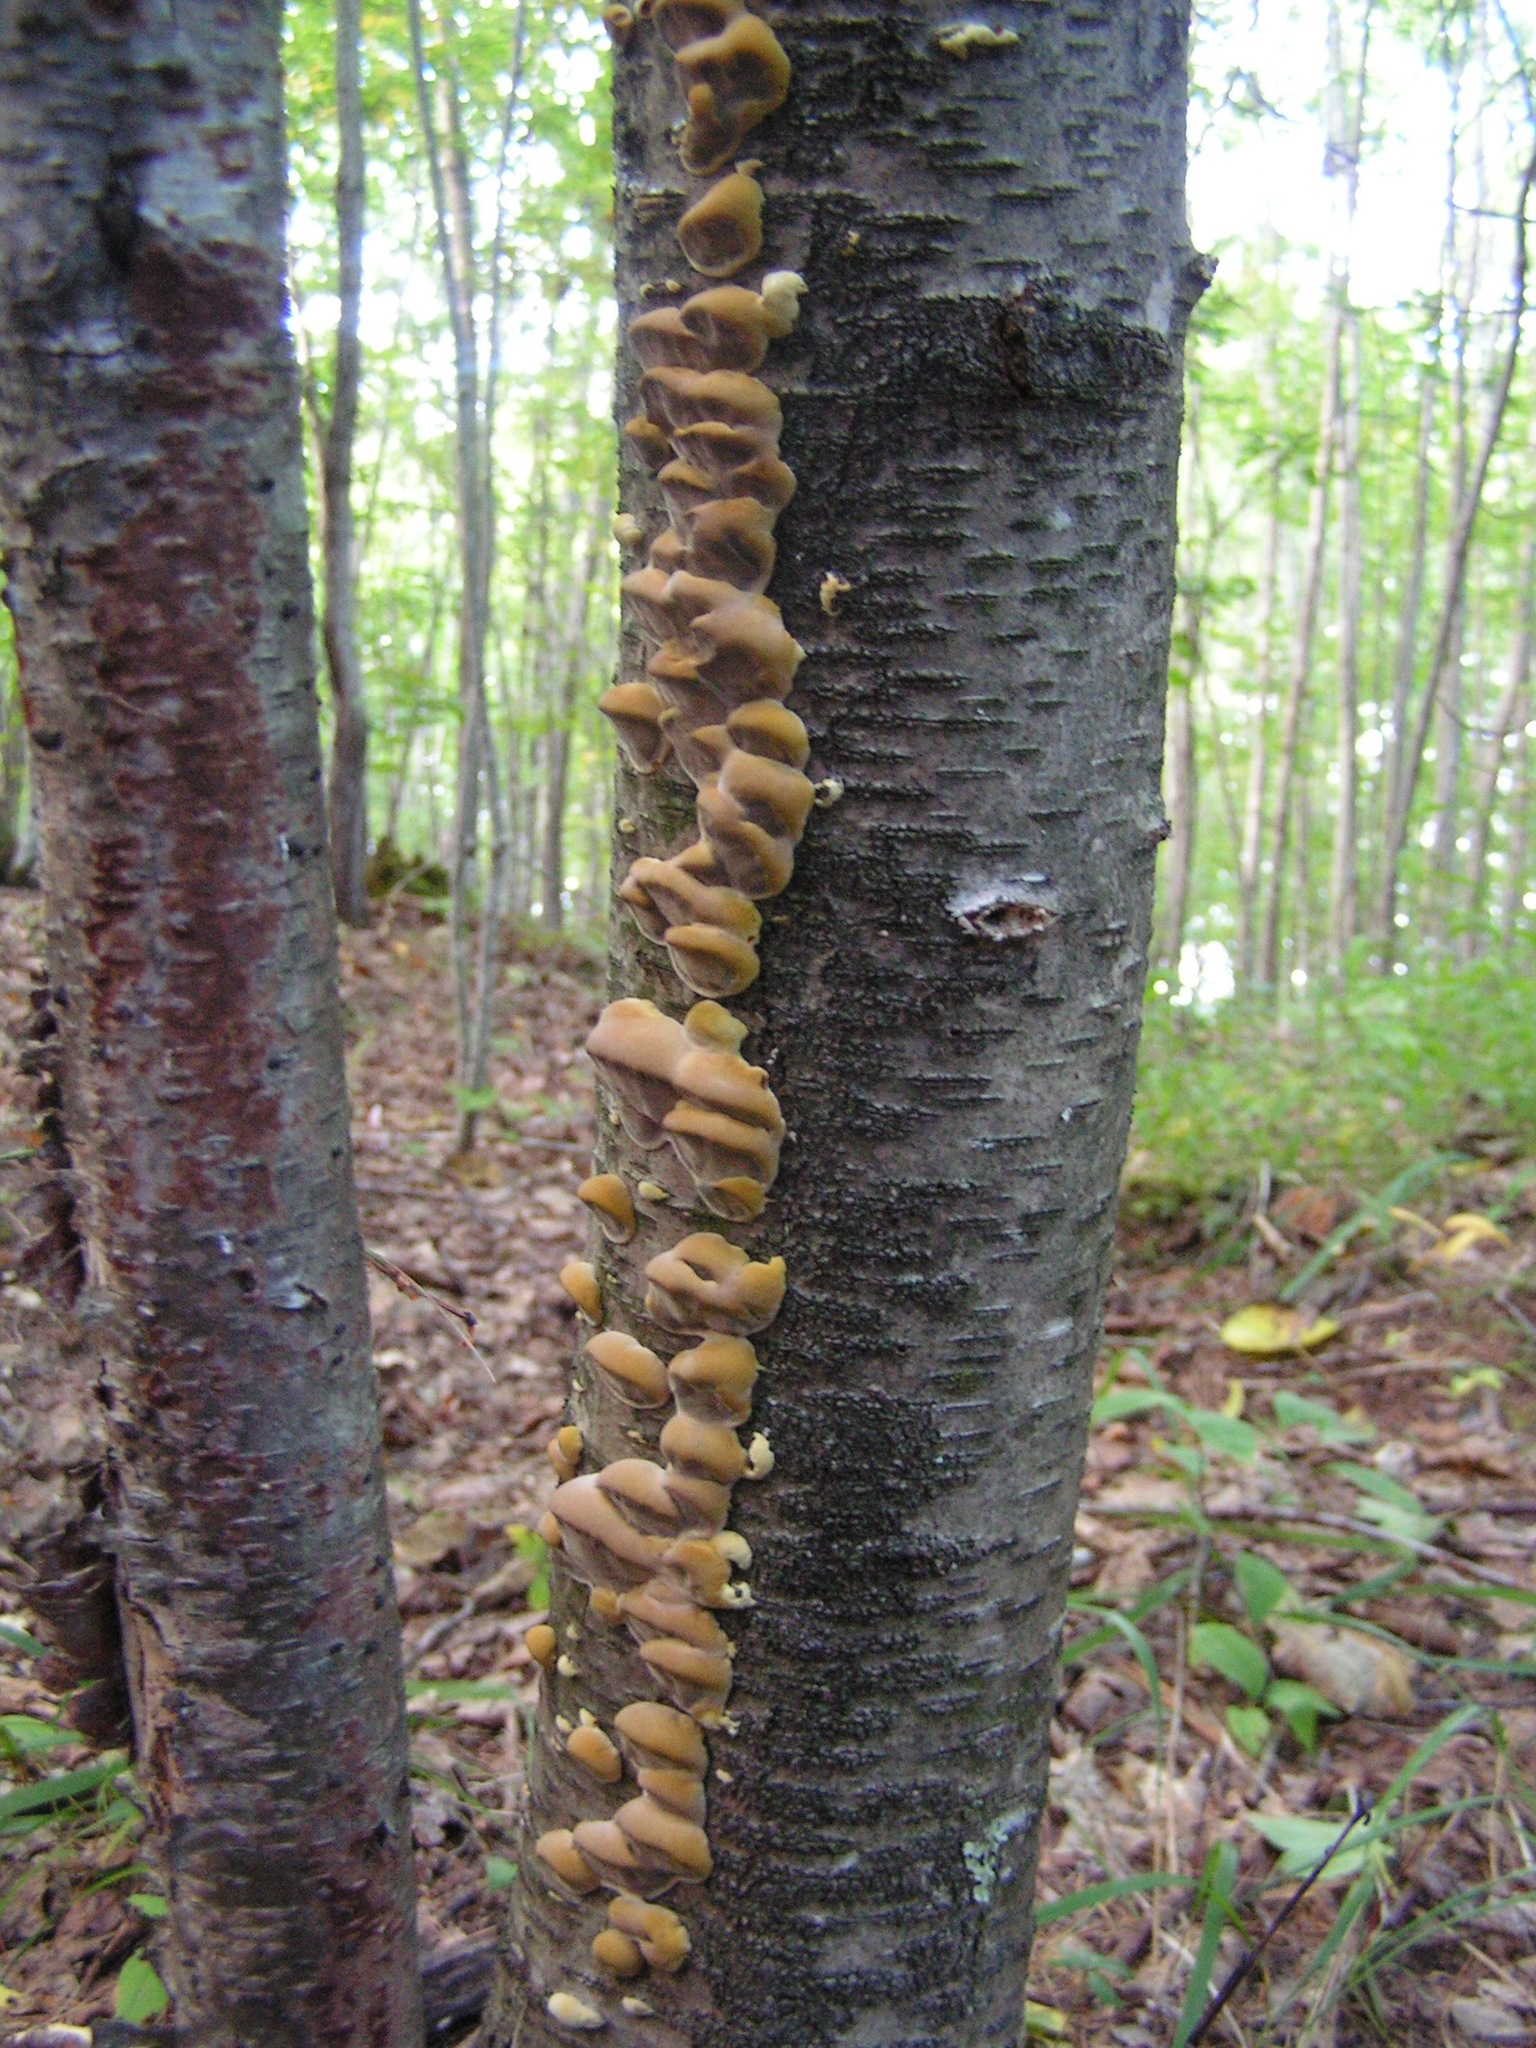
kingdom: Fungi
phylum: Basidiomycota
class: Agaricomycetes
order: Hymenochaetales
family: Hymenochaetaceae
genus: Xanthoporia
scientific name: Xanthoporia radiata
